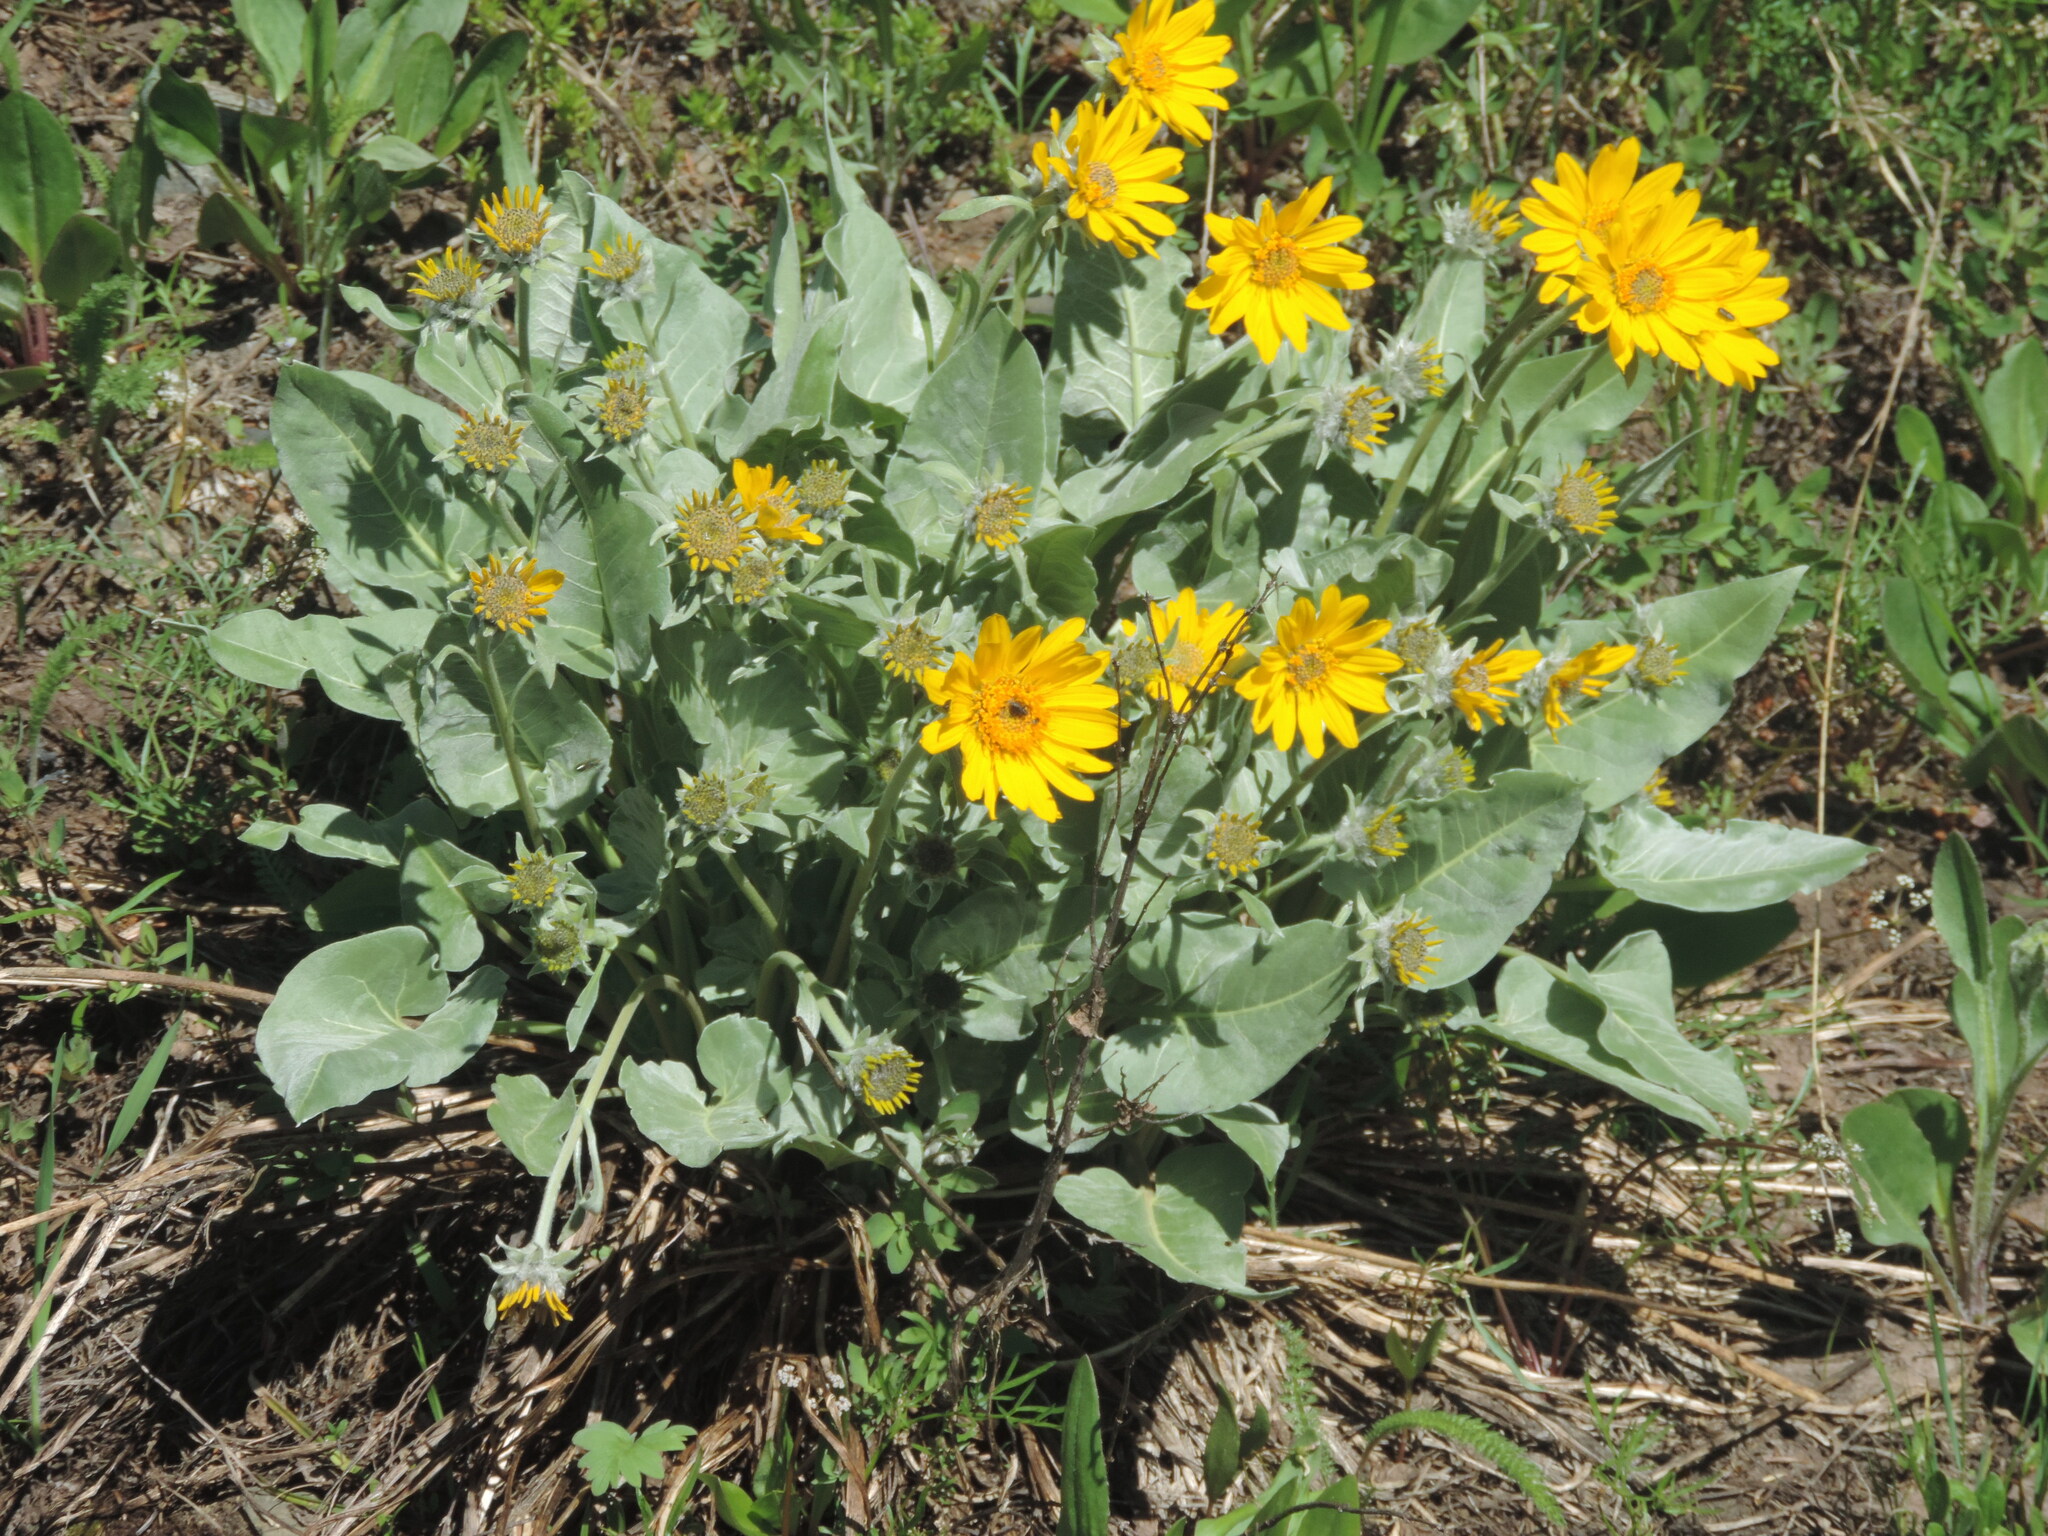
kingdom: Plantae
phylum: Tracheophyta
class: Magnoliopsida
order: Asterales
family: Asteraceae
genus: Wyethia
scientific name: Wyethia sagittata
